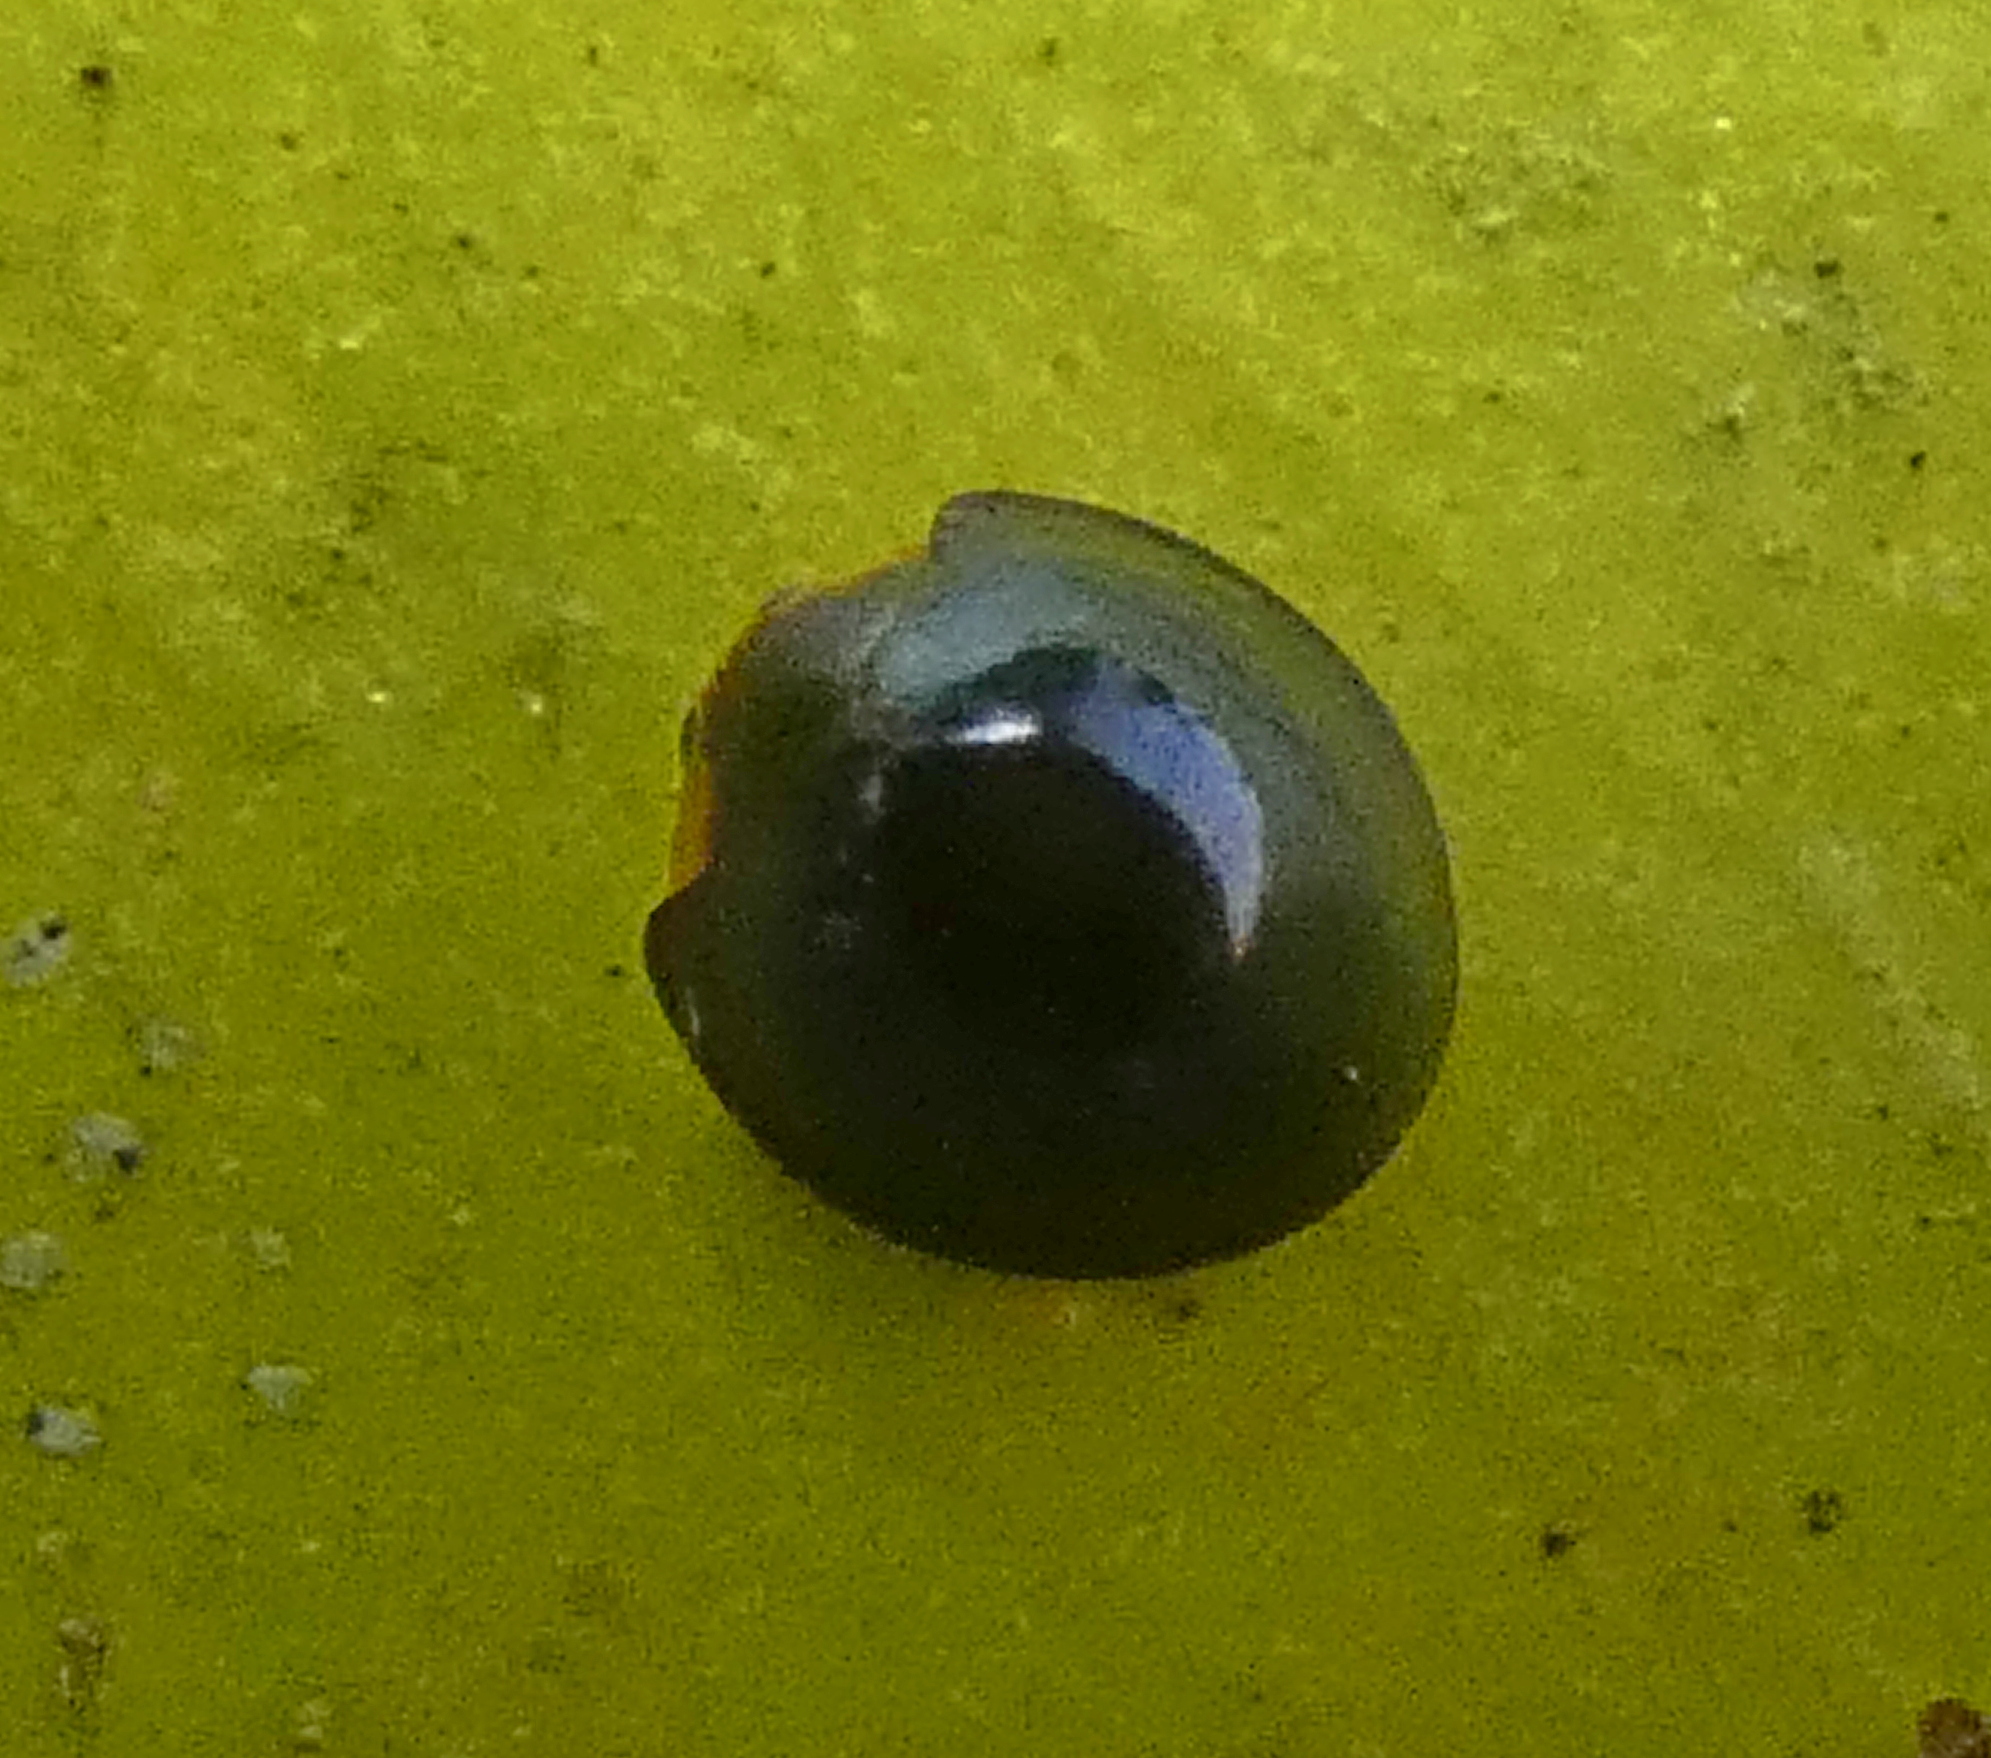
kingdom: Animalia
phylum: Arthropoda
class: Insecta
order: Coleoptera
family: Coccinellidae
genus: Chilocorus
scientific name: Chilocorus nigritus
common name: Ladybird beetle
